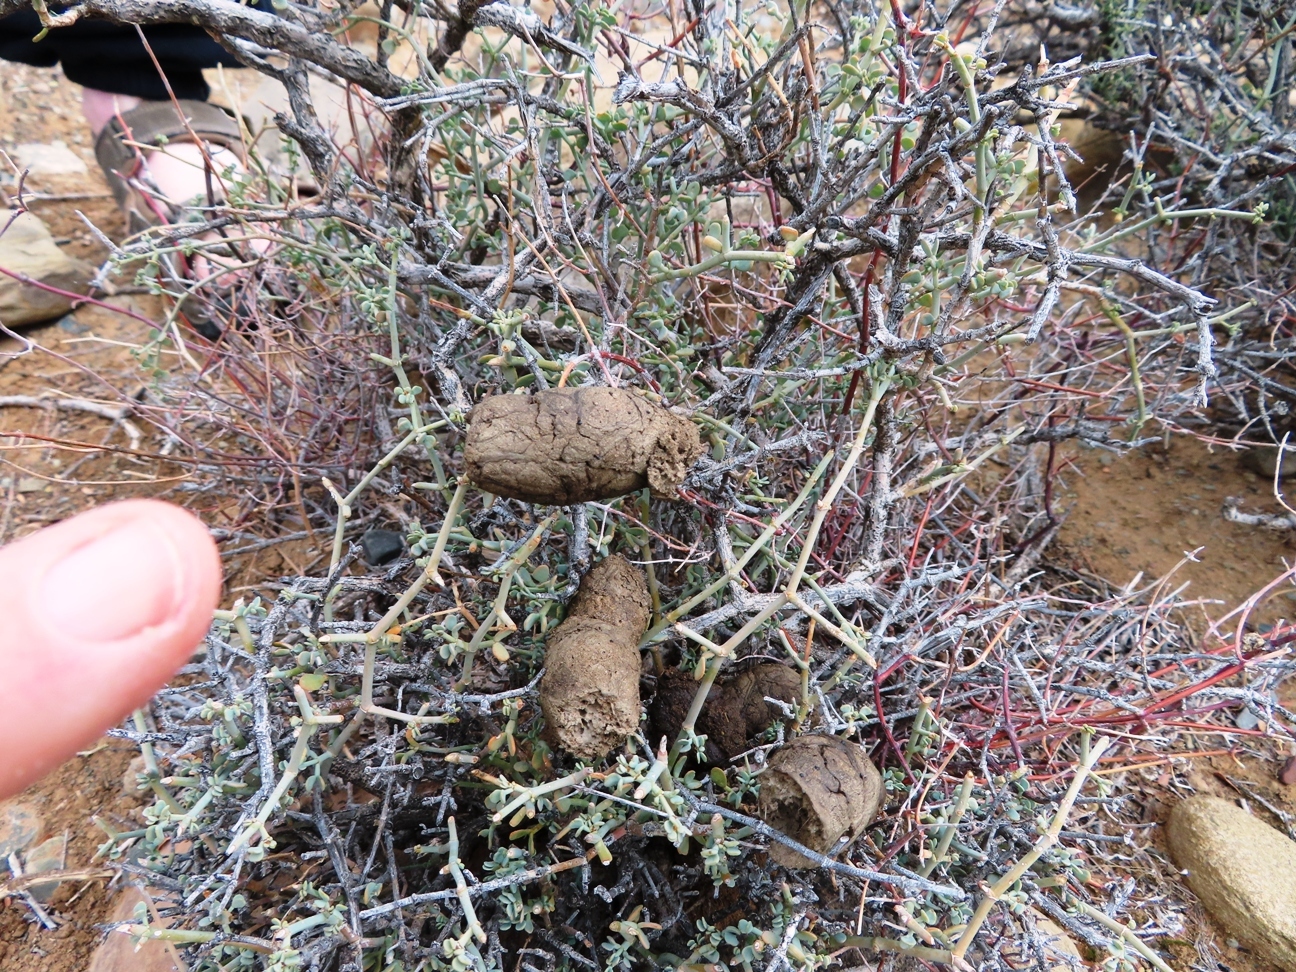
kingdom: Animalia
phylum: Chordata
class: Mammalia
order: Carnivora
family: Canidae
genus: Lupulella
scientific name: Lupulella
